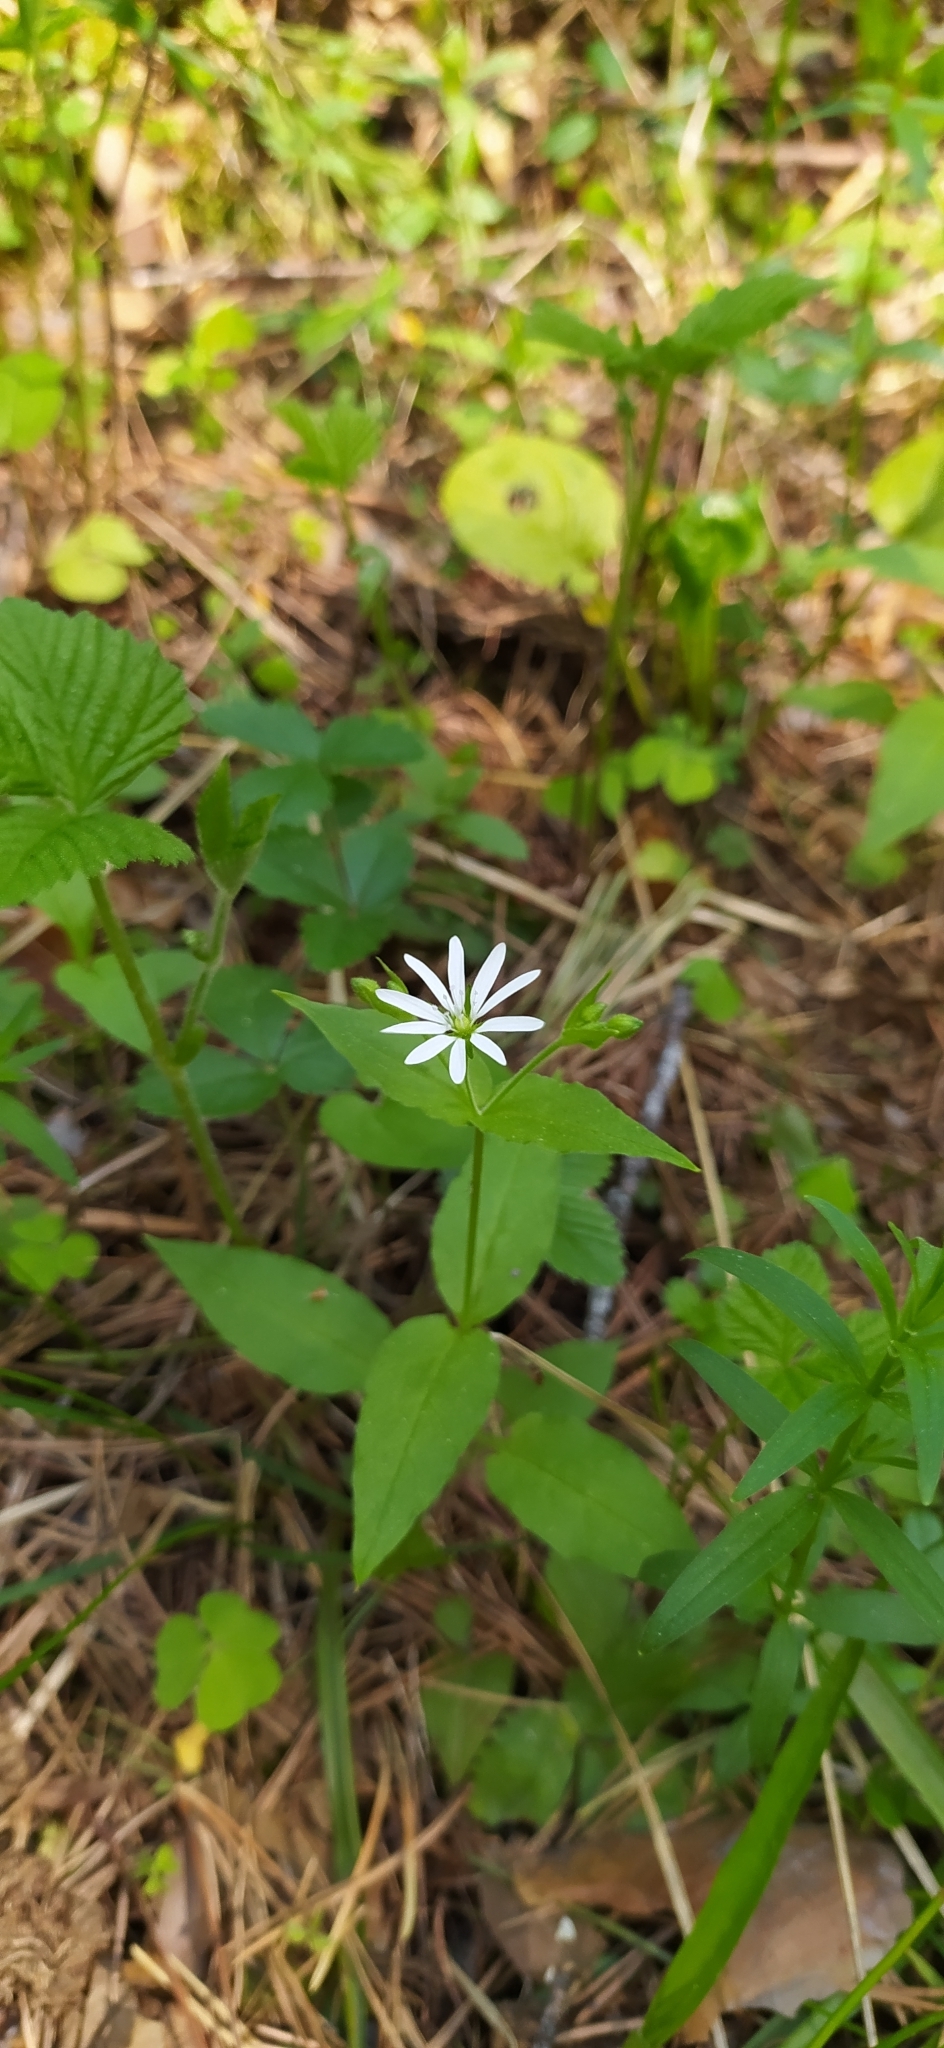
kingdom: Plantae
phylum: Tracheophyta
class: Magnoliopsida
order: Caryophyllales
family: Caryophyllaceae
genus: Stellaria
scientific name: Stellaria bungeana
